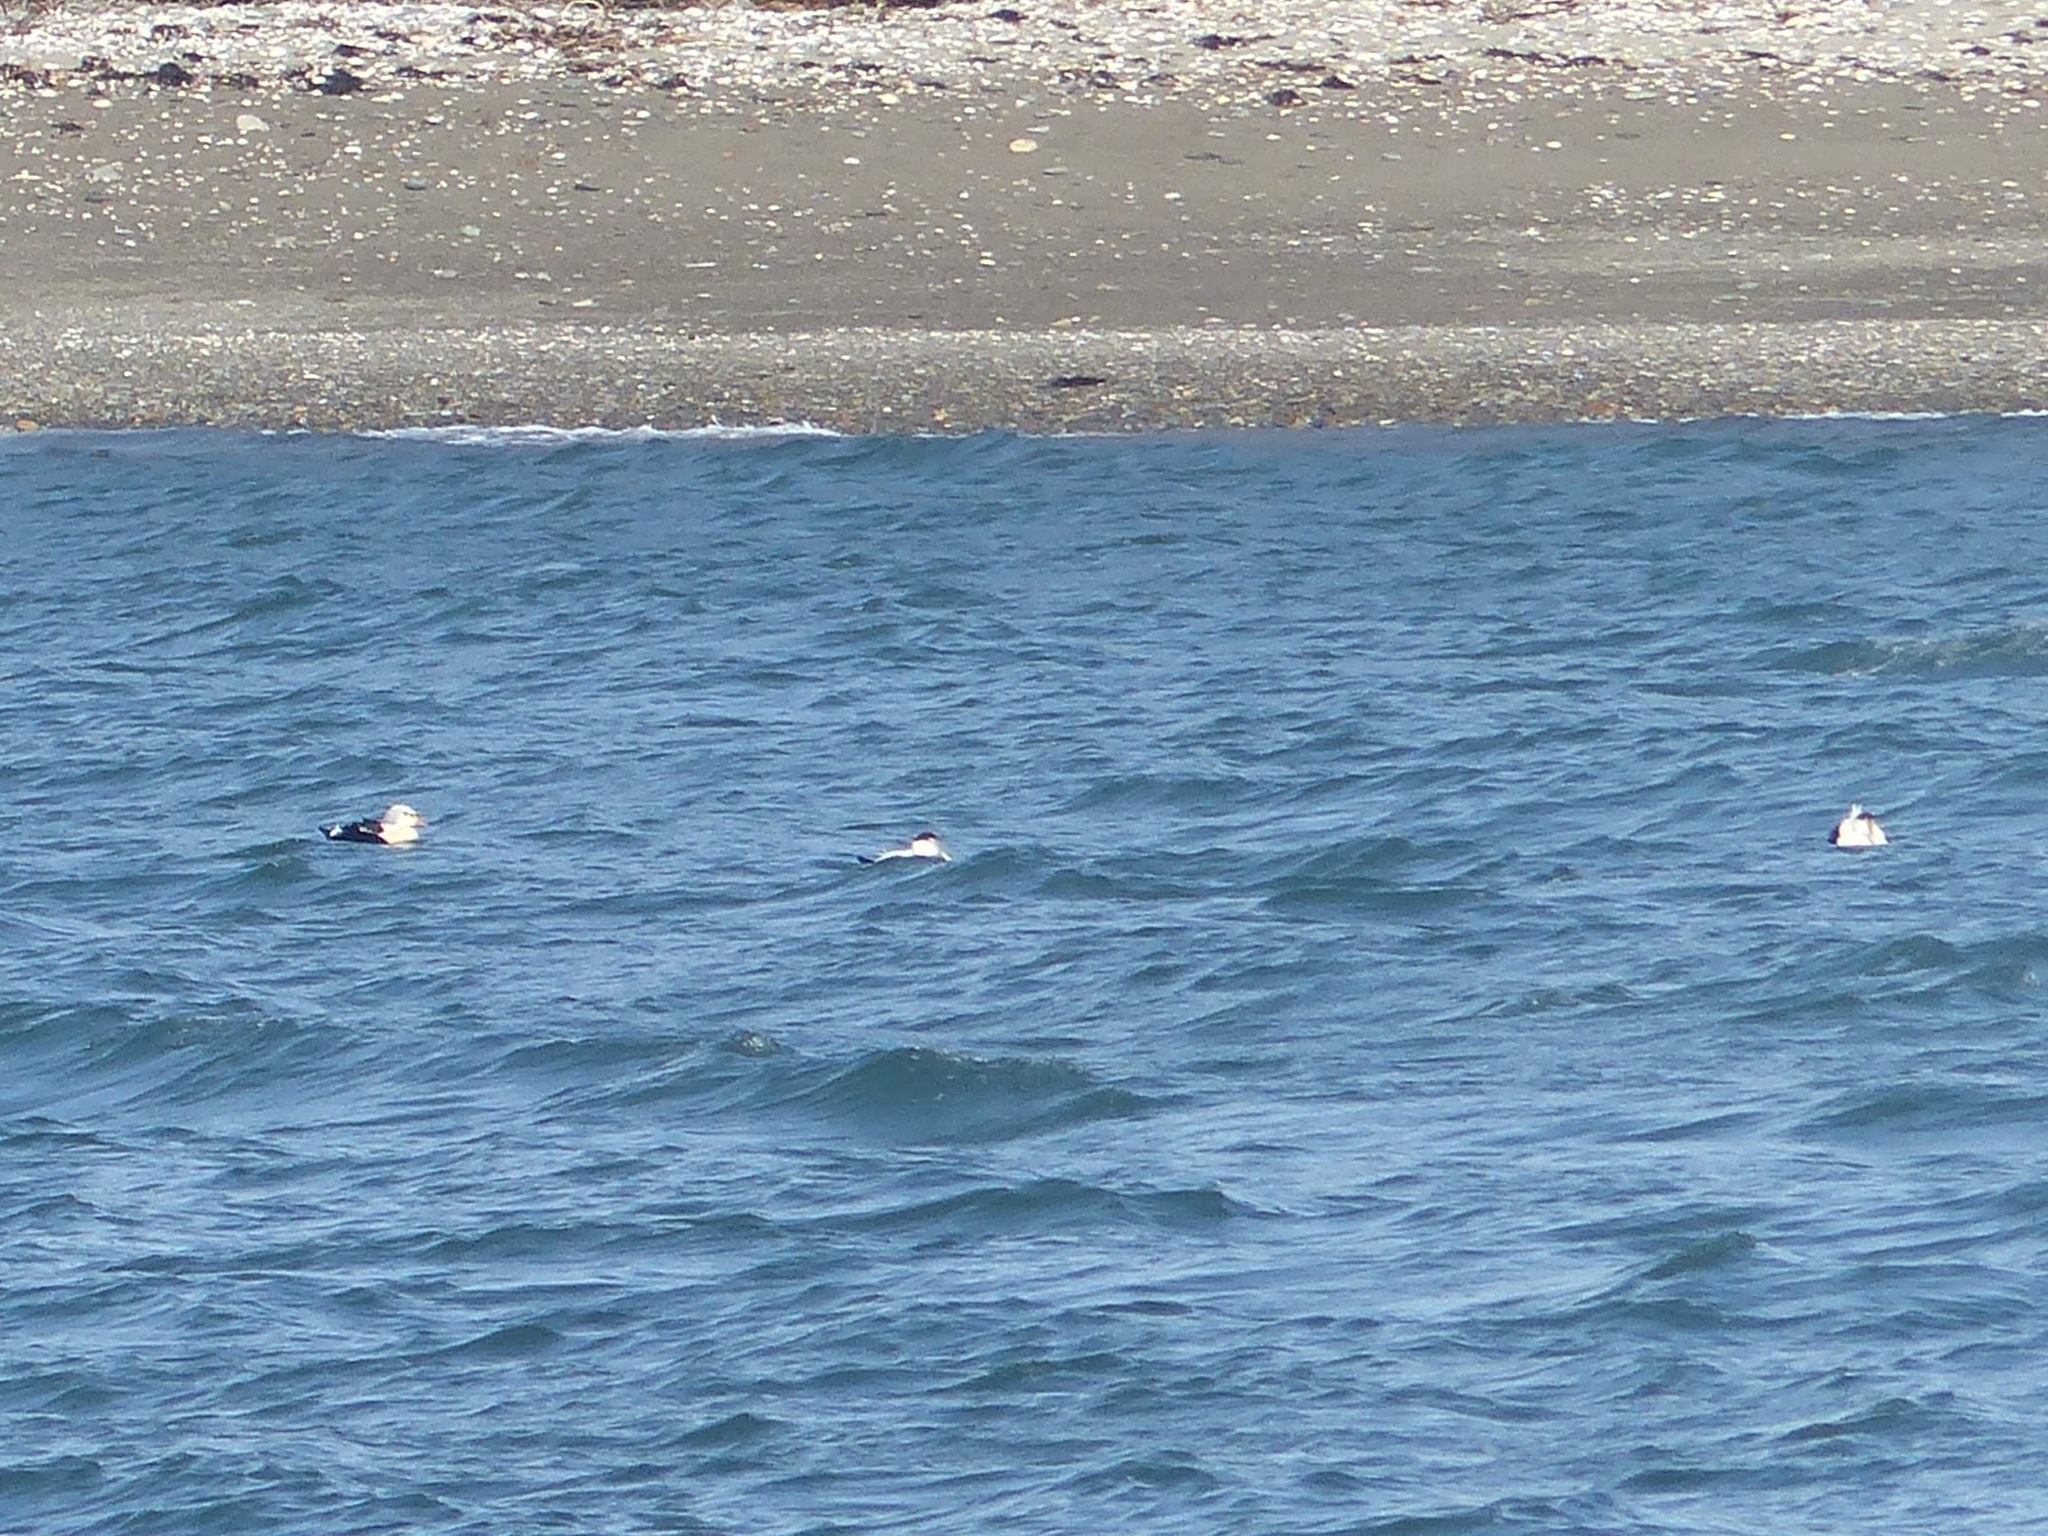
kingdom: Animalia
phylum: Chordata
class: Aves
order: Anseriformes
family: Anatidae
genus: Somateria
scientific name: Somateria spectabilis
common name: King eider
